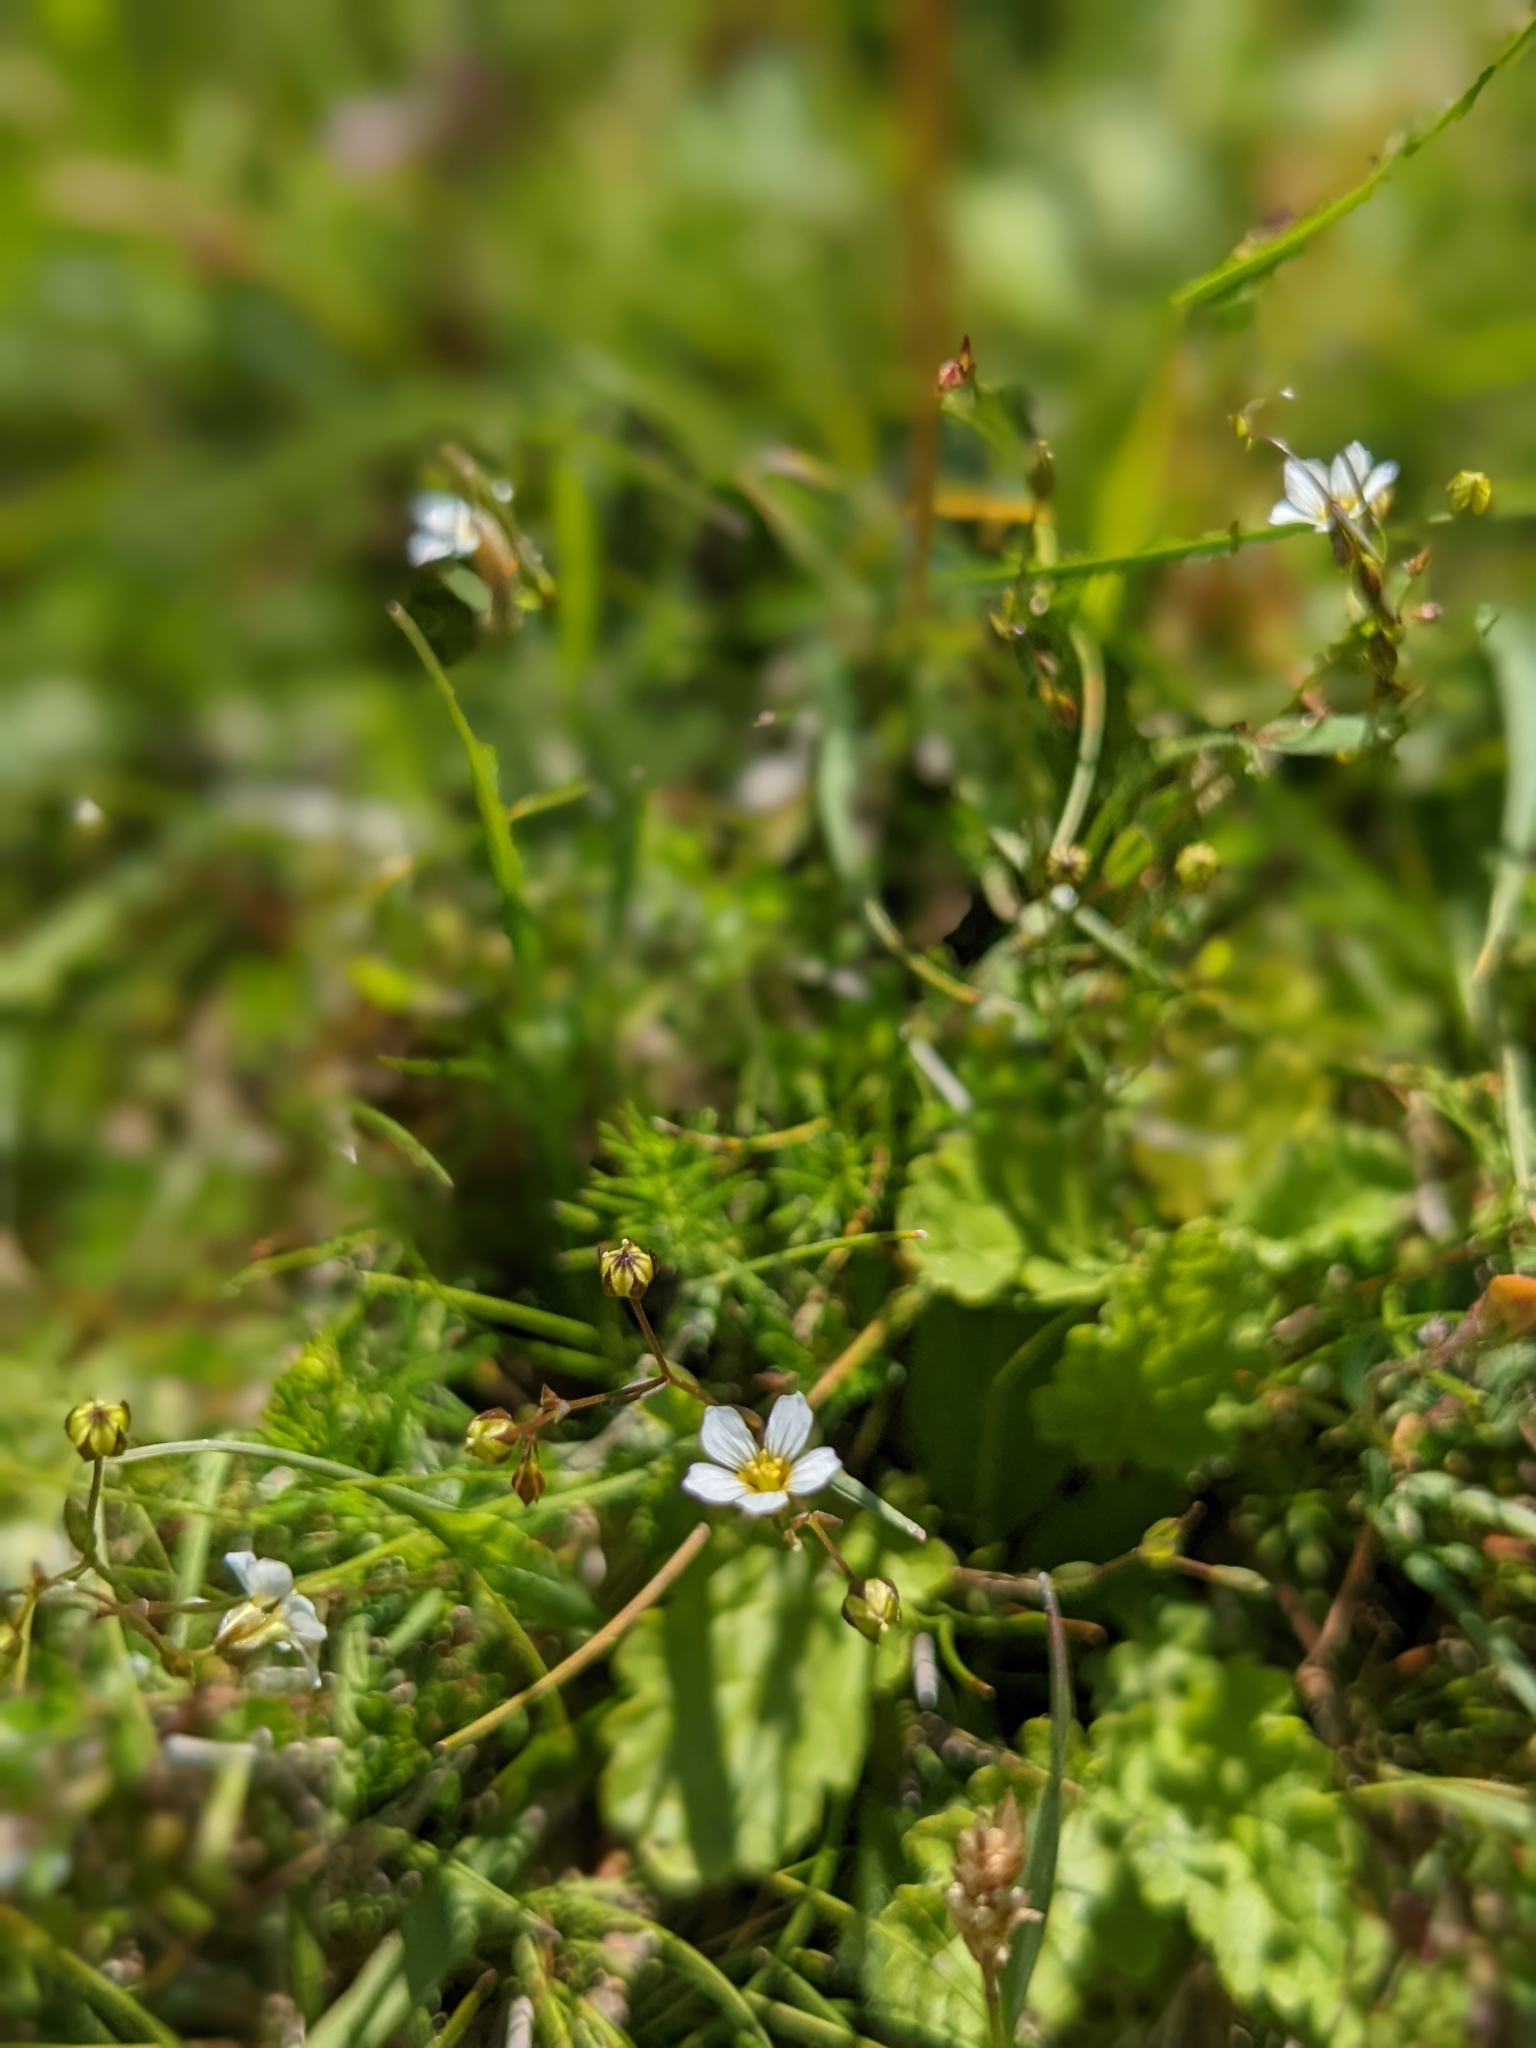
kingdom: Plantae
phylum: Tracheophyta
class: Magnoliopsida
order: Malpighiales
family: Linaceae
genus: Linum
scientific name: Linum catharticum
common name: Fairy flax
